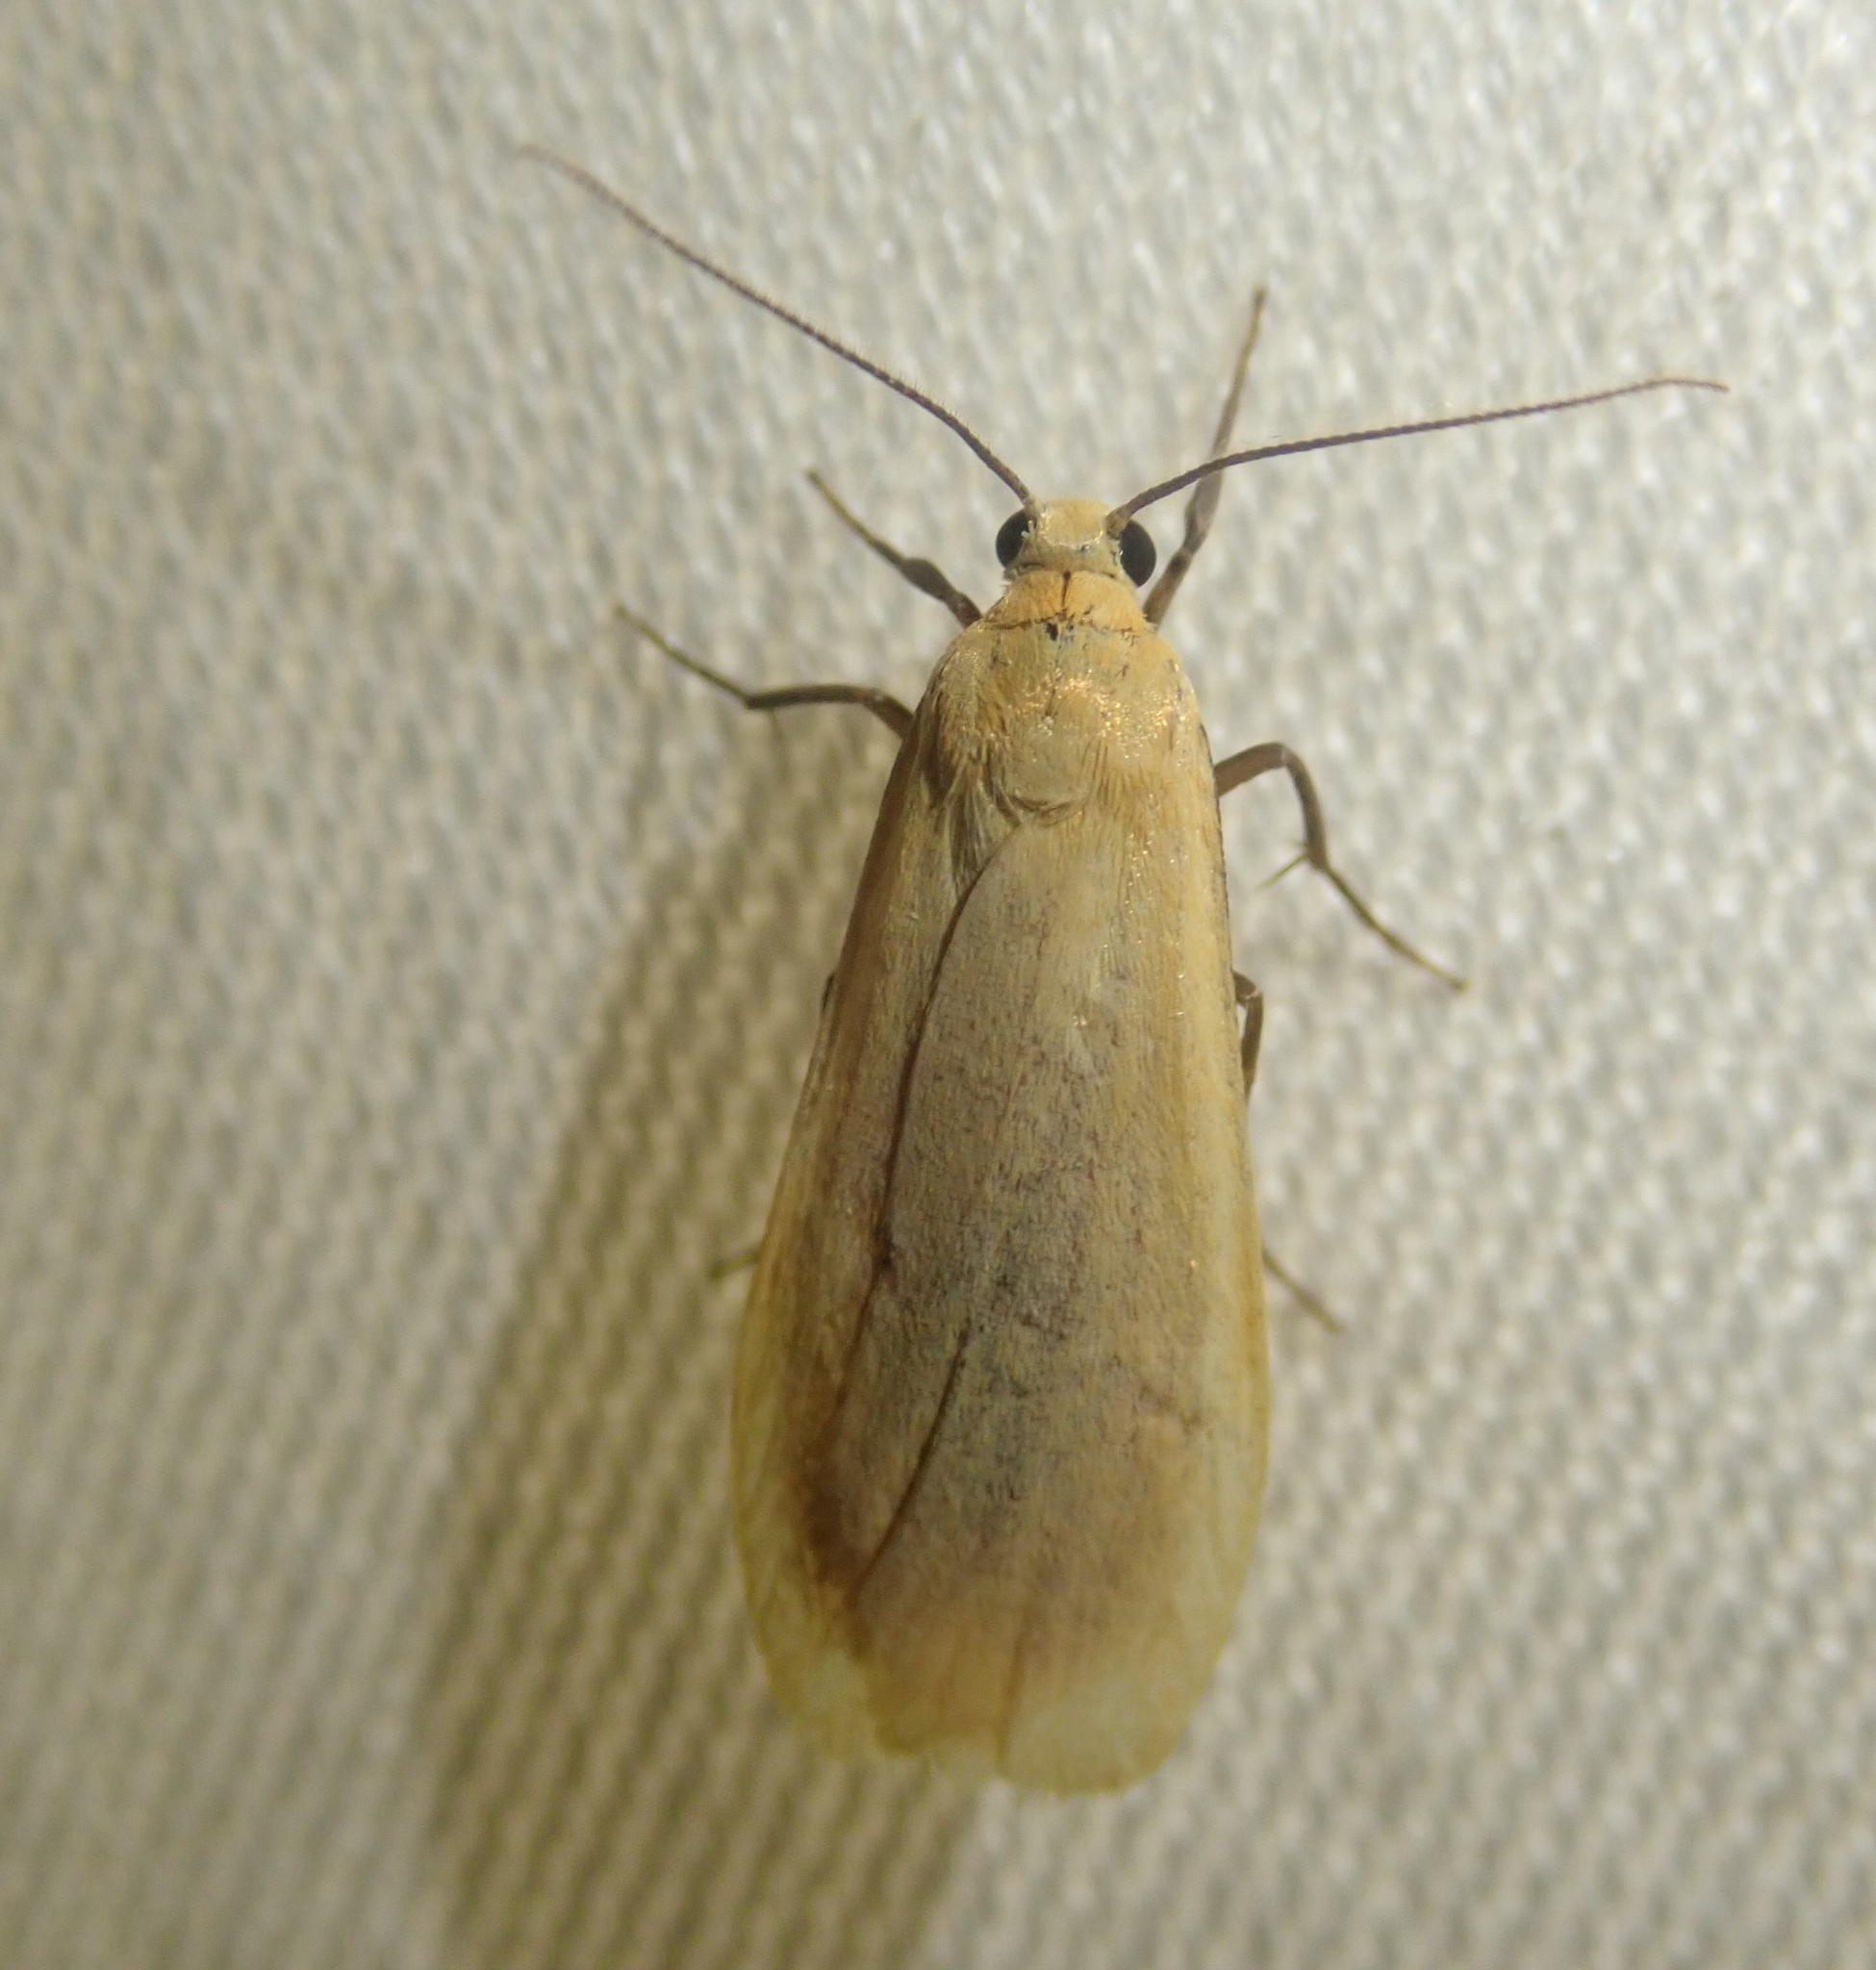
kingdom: Animalia
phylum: Arthropoda
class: Insecta
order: Lepidoptera
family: Erebidae
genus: Wittia
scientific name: Wittia sororcula
